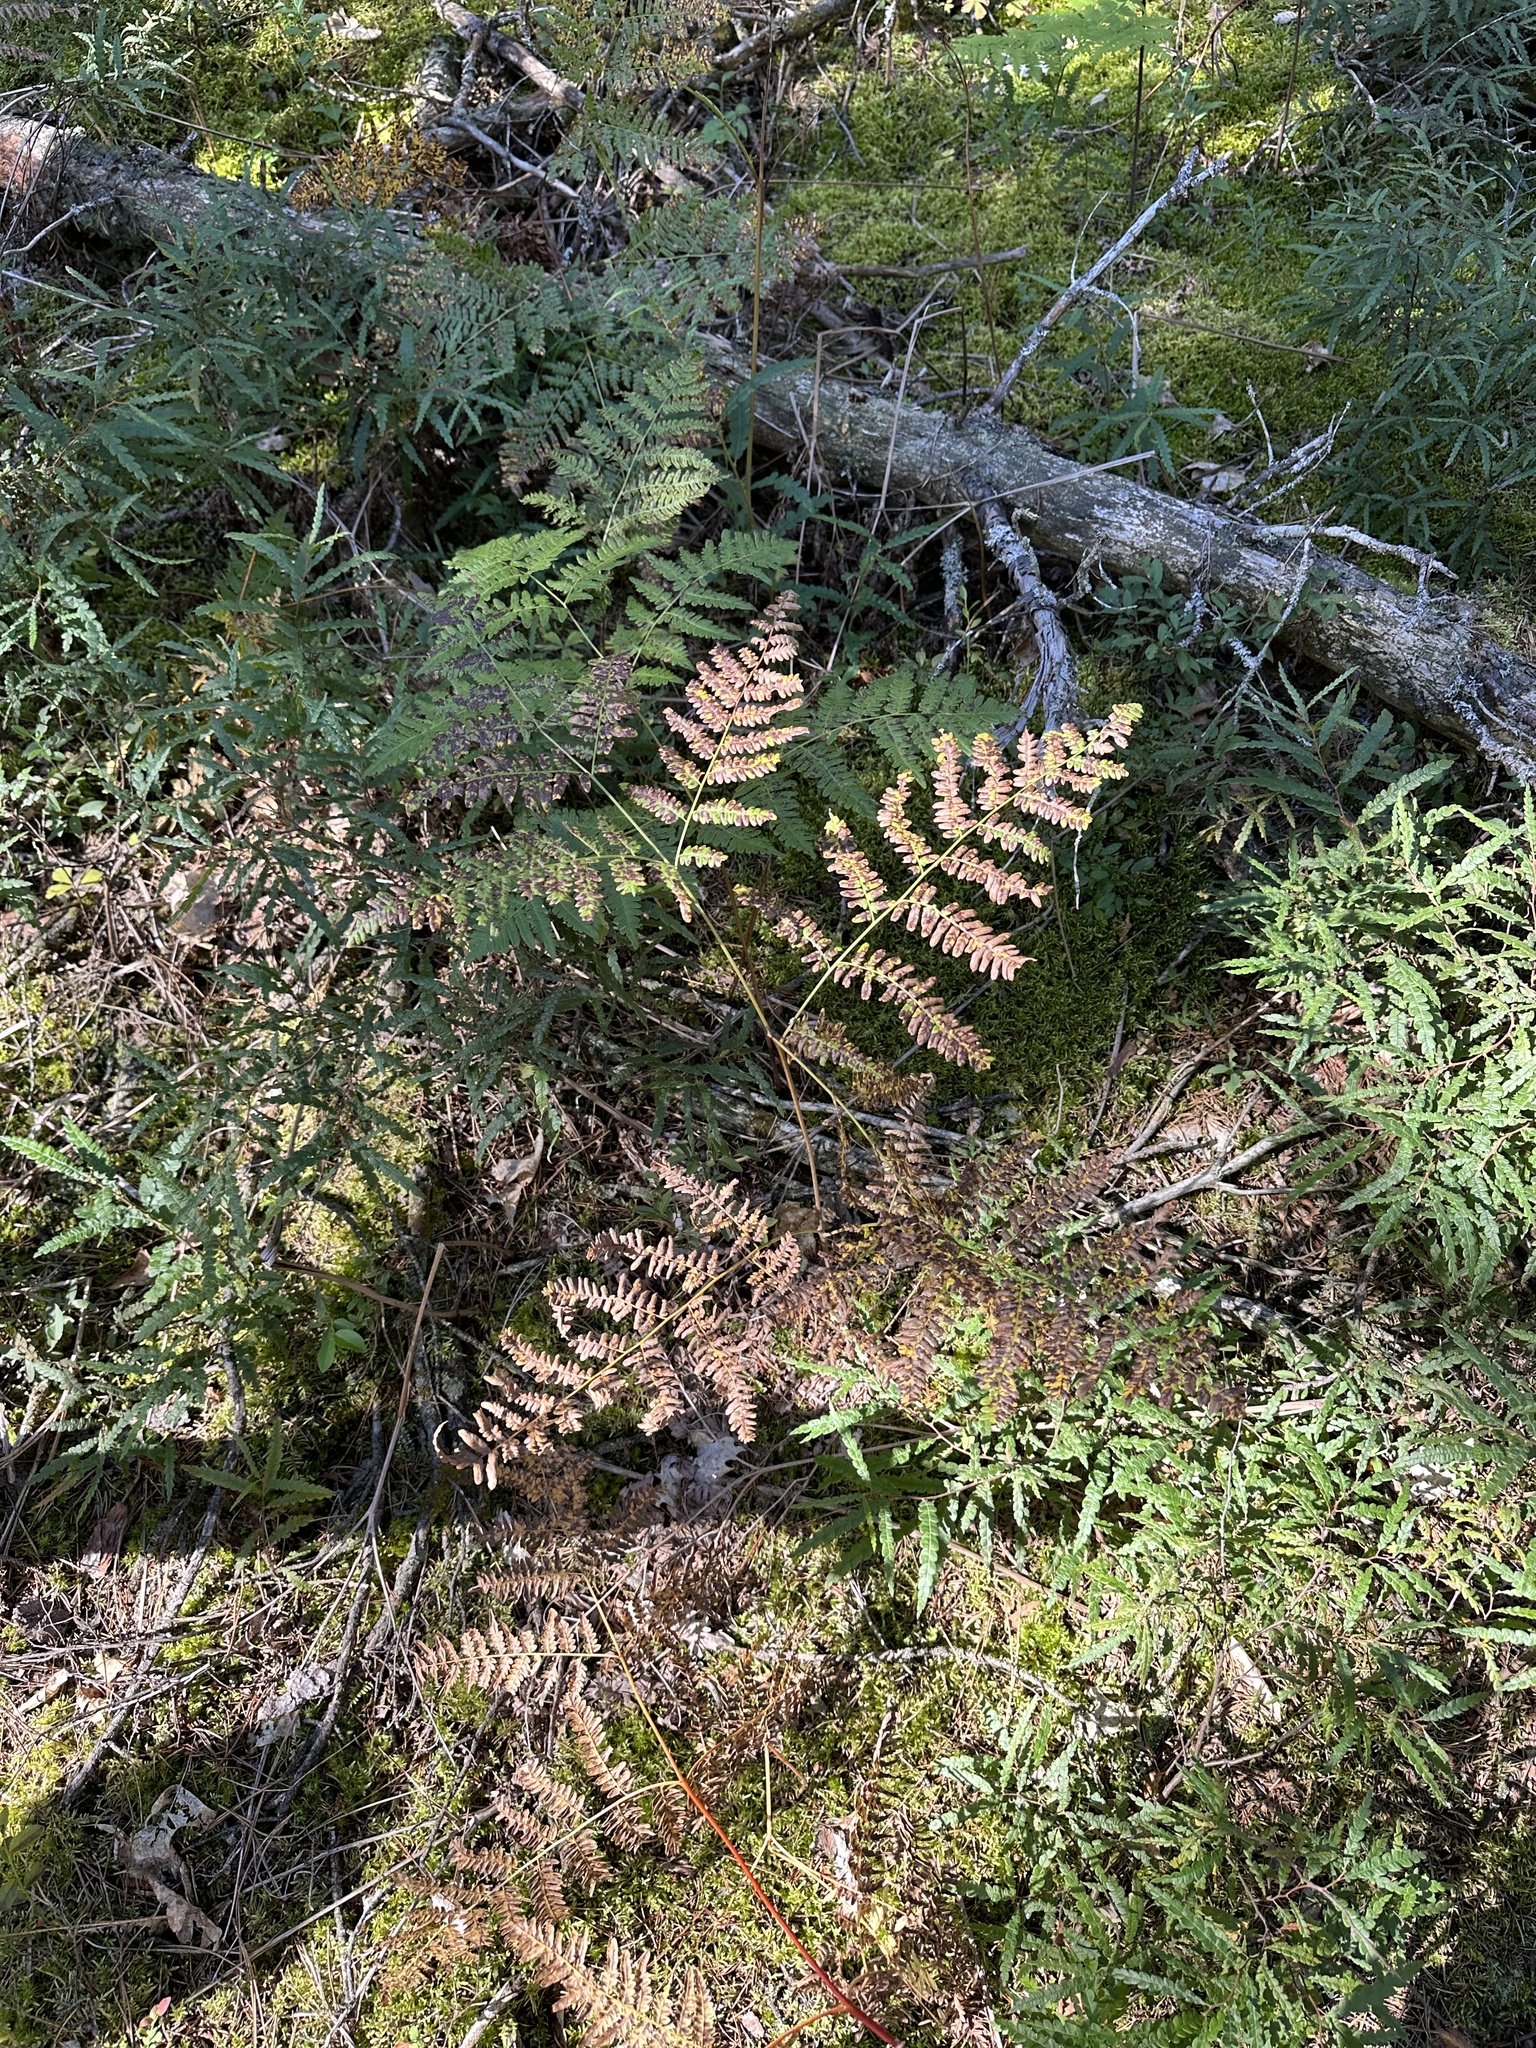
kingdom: Plantae
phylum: Tracheophyta
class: Polypodiopsida
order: Polypodiales
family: Dennstaedtiaceae
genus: Pteridium
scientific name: Pteridium aquilinum
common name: Bracken
